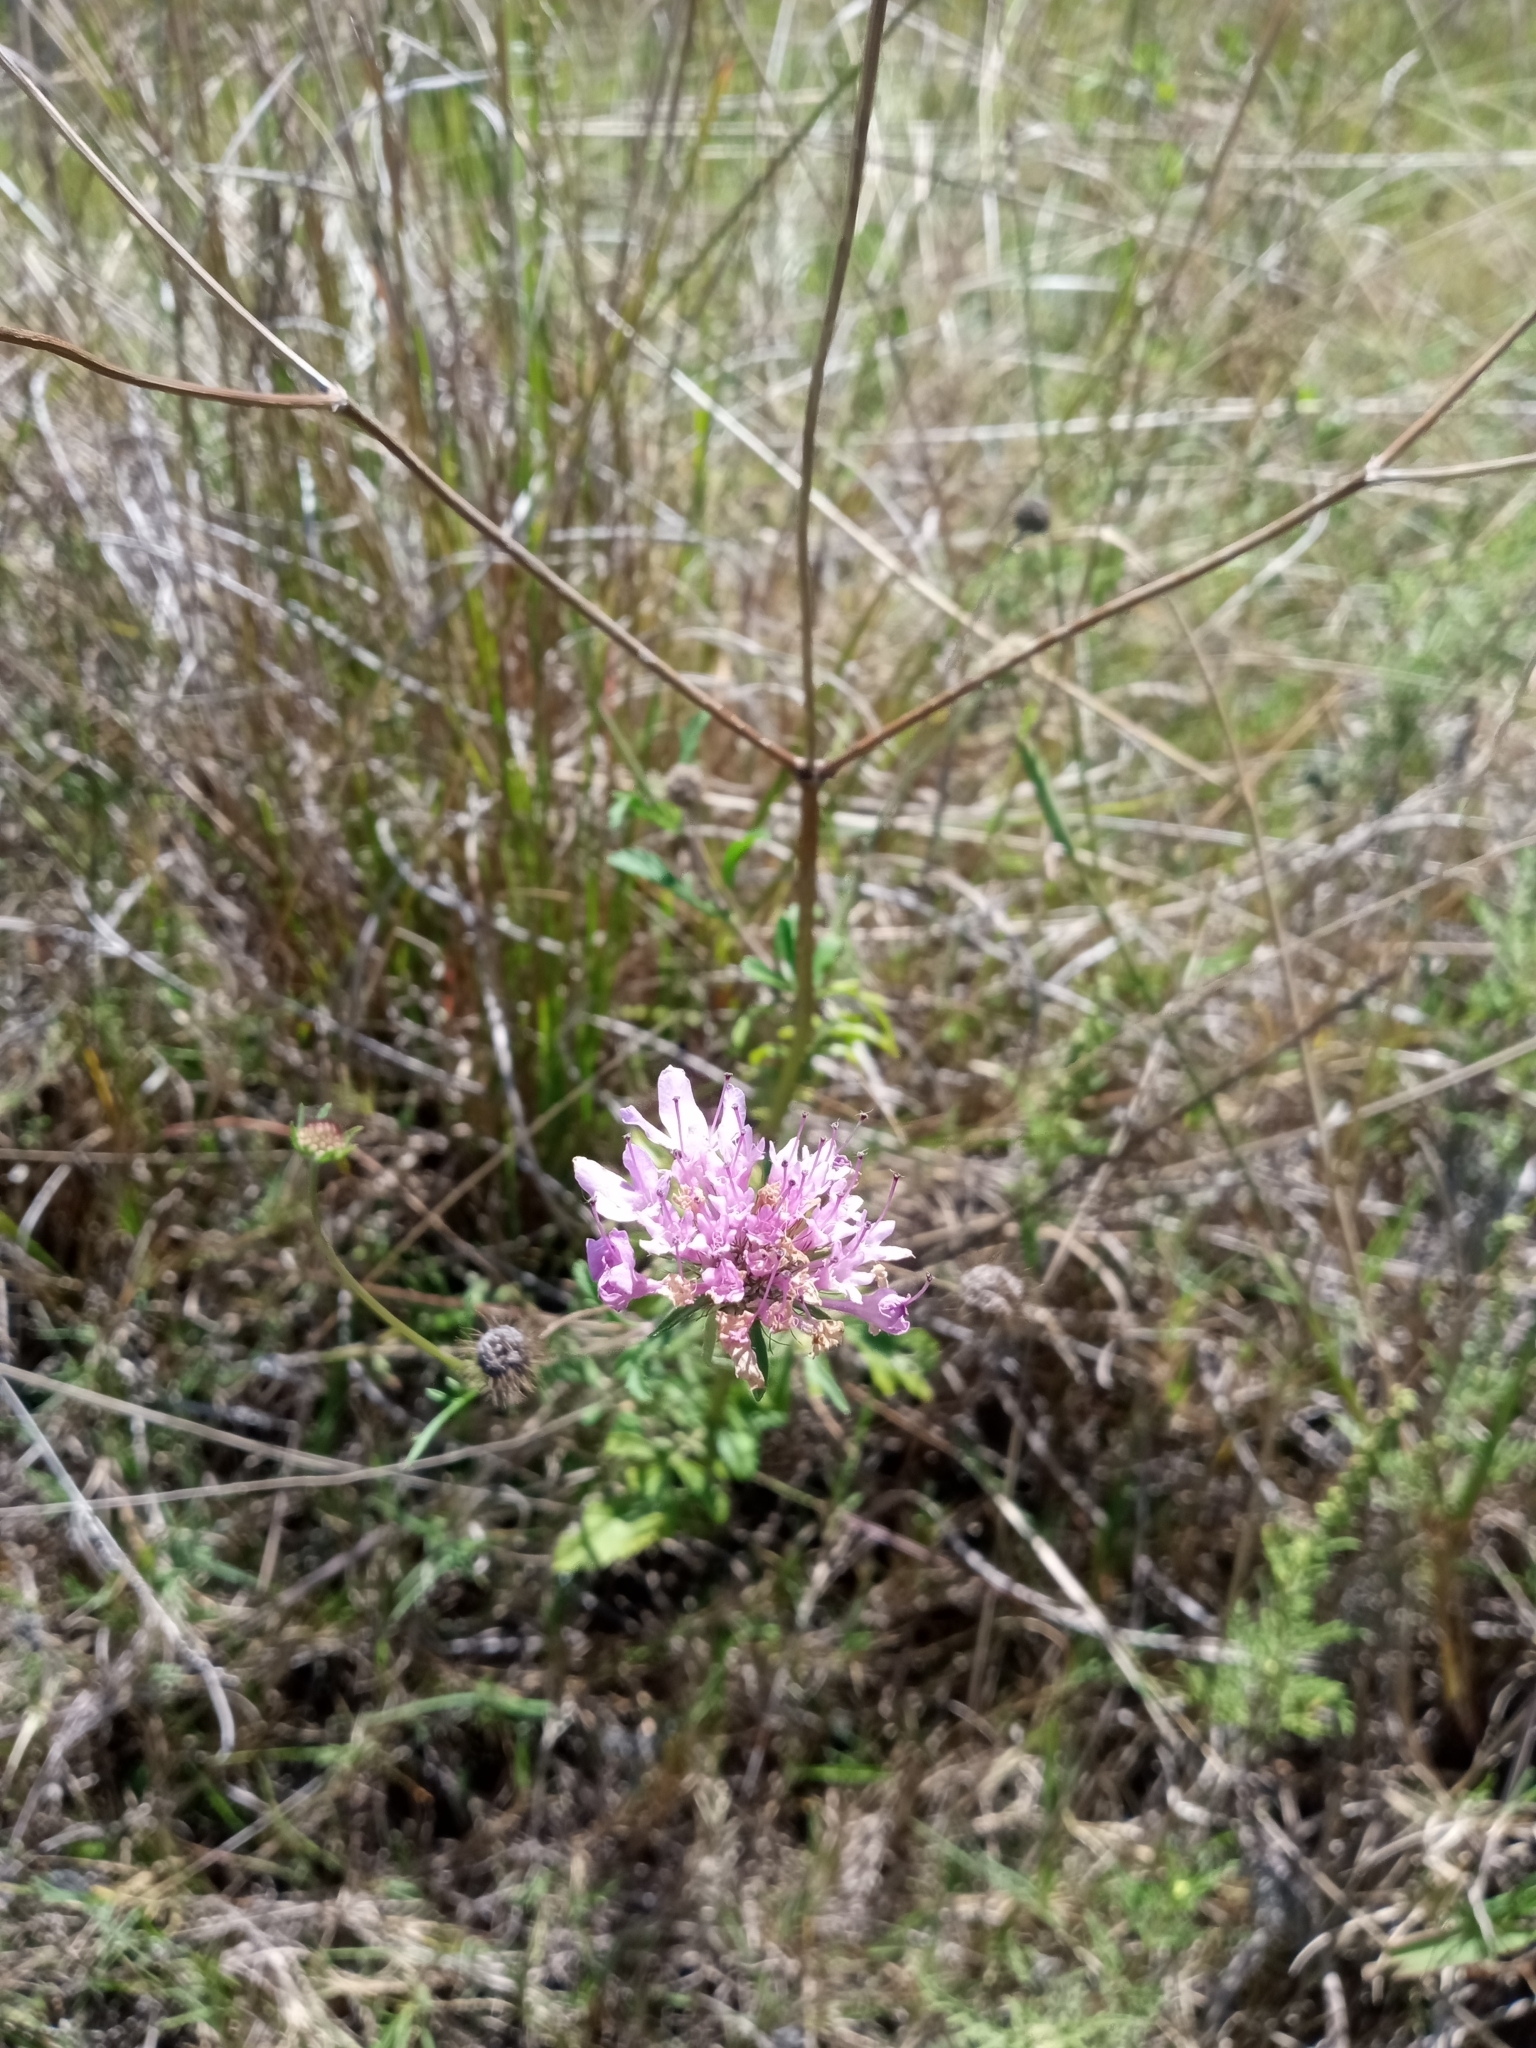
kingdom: Plantae
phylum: Tracheophyta
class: Magnoliopsida
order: Dipsacales
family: Caprifoliaceae
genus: Sixalix
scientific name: Sixalix atropurpurea
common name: Sweet scabious
